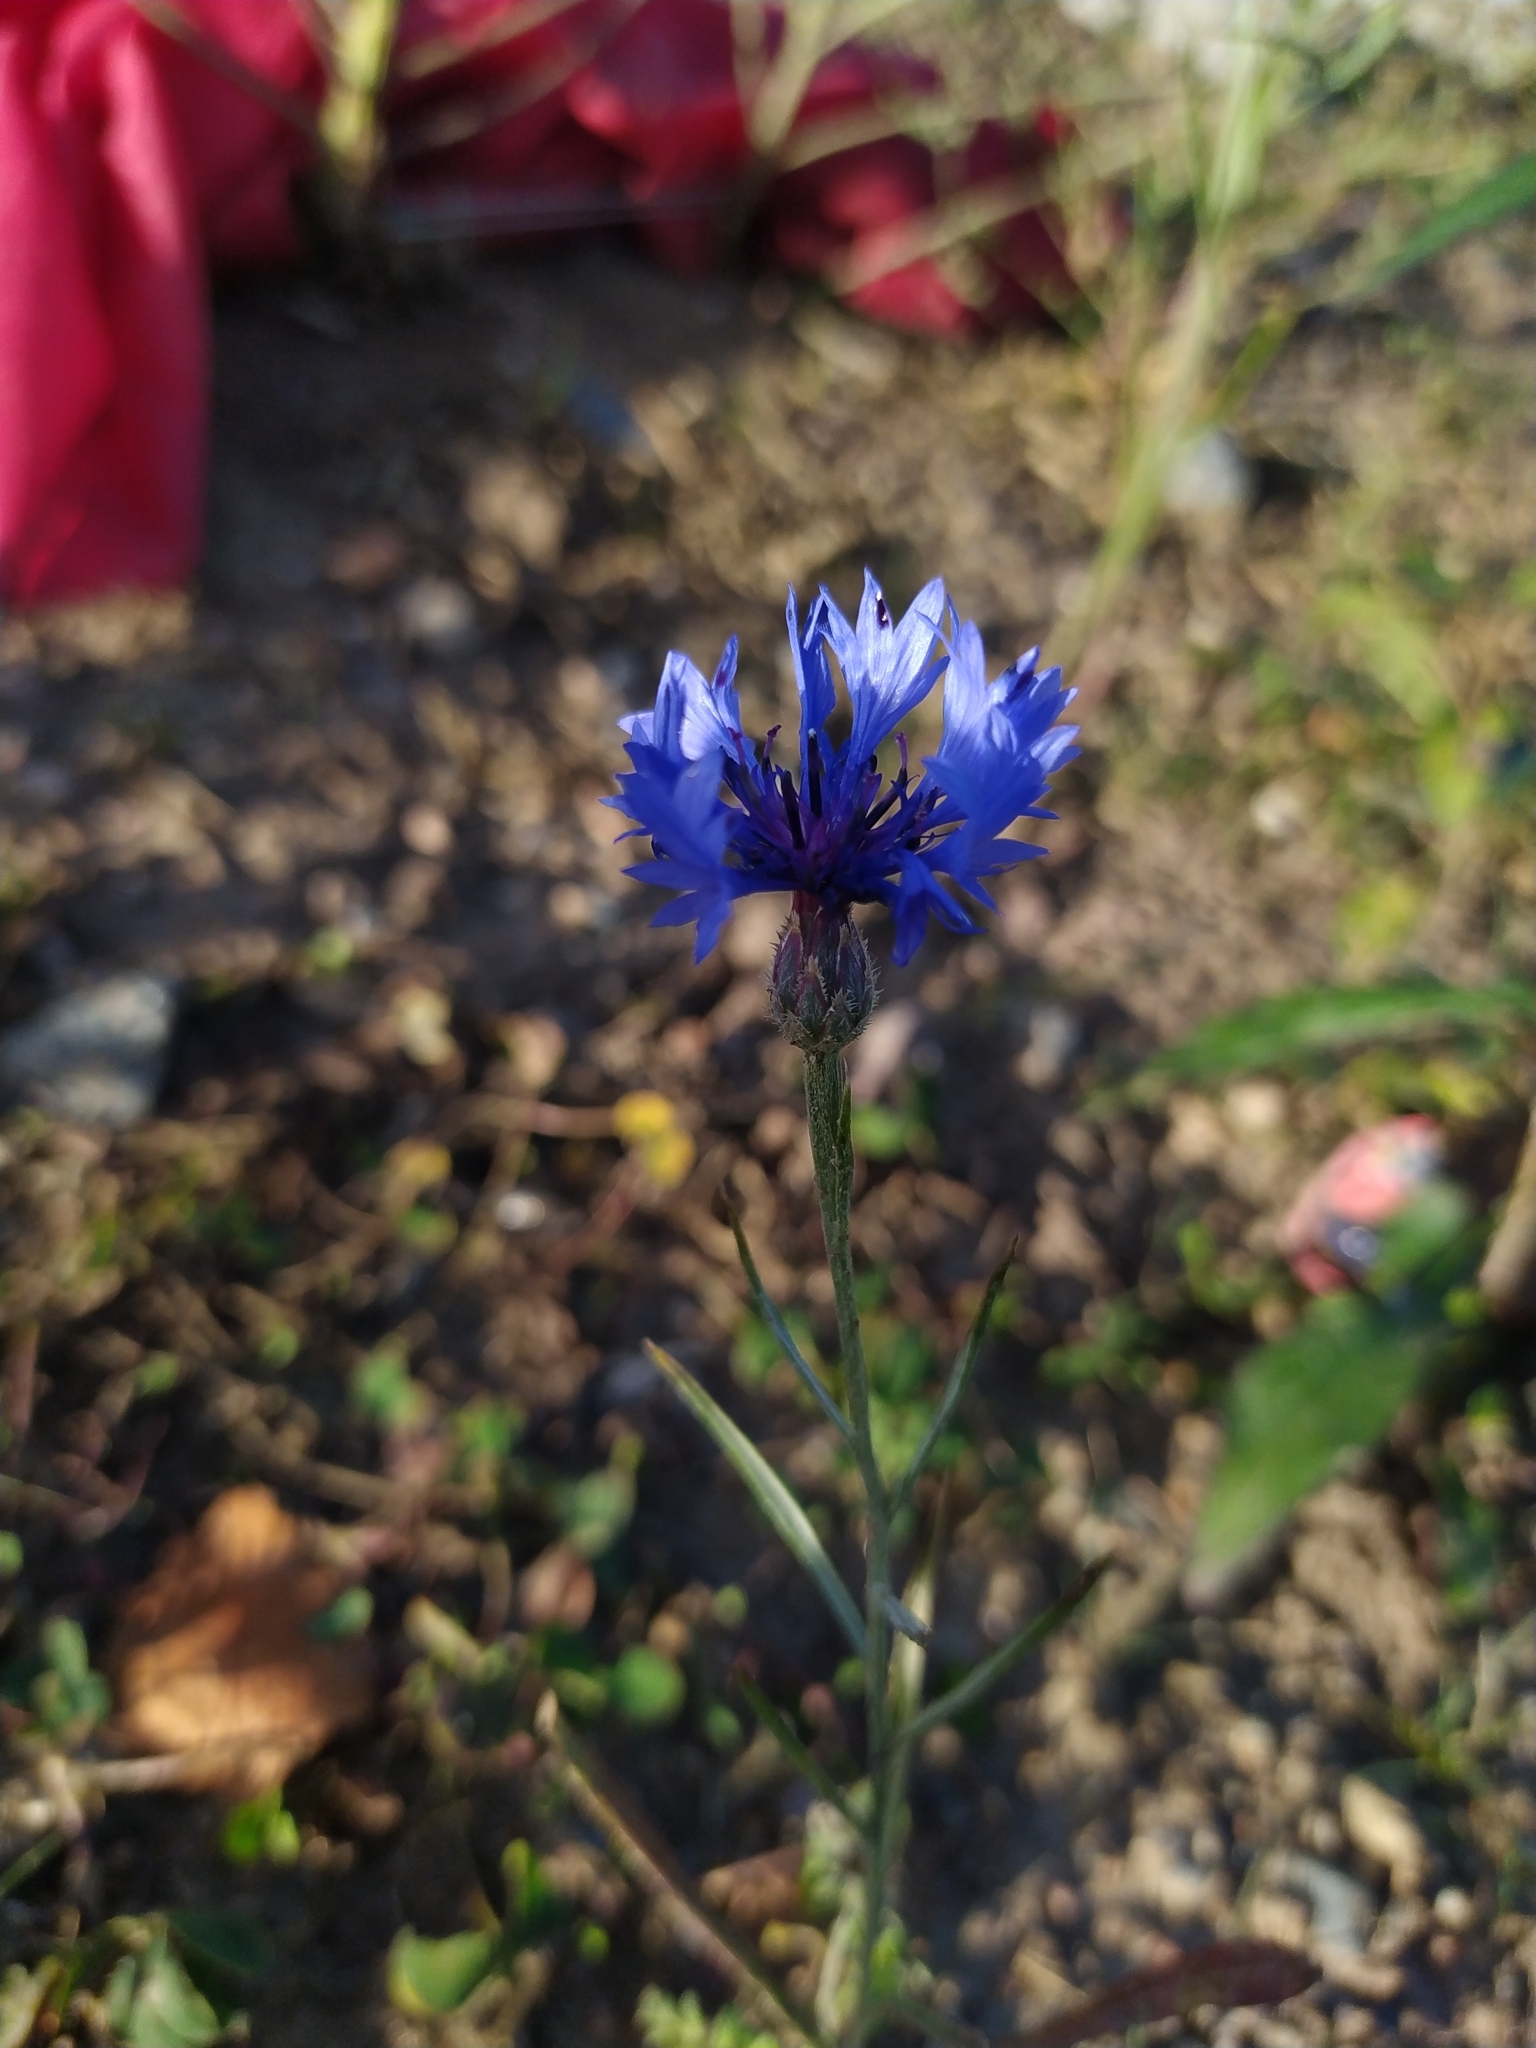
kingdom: Plantae
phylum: Tracheophyta
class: Magnoliopsida
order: Asterales
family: Asteraceae
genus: Centaurea
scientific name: Centaurea cyanus
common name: Cornflower
